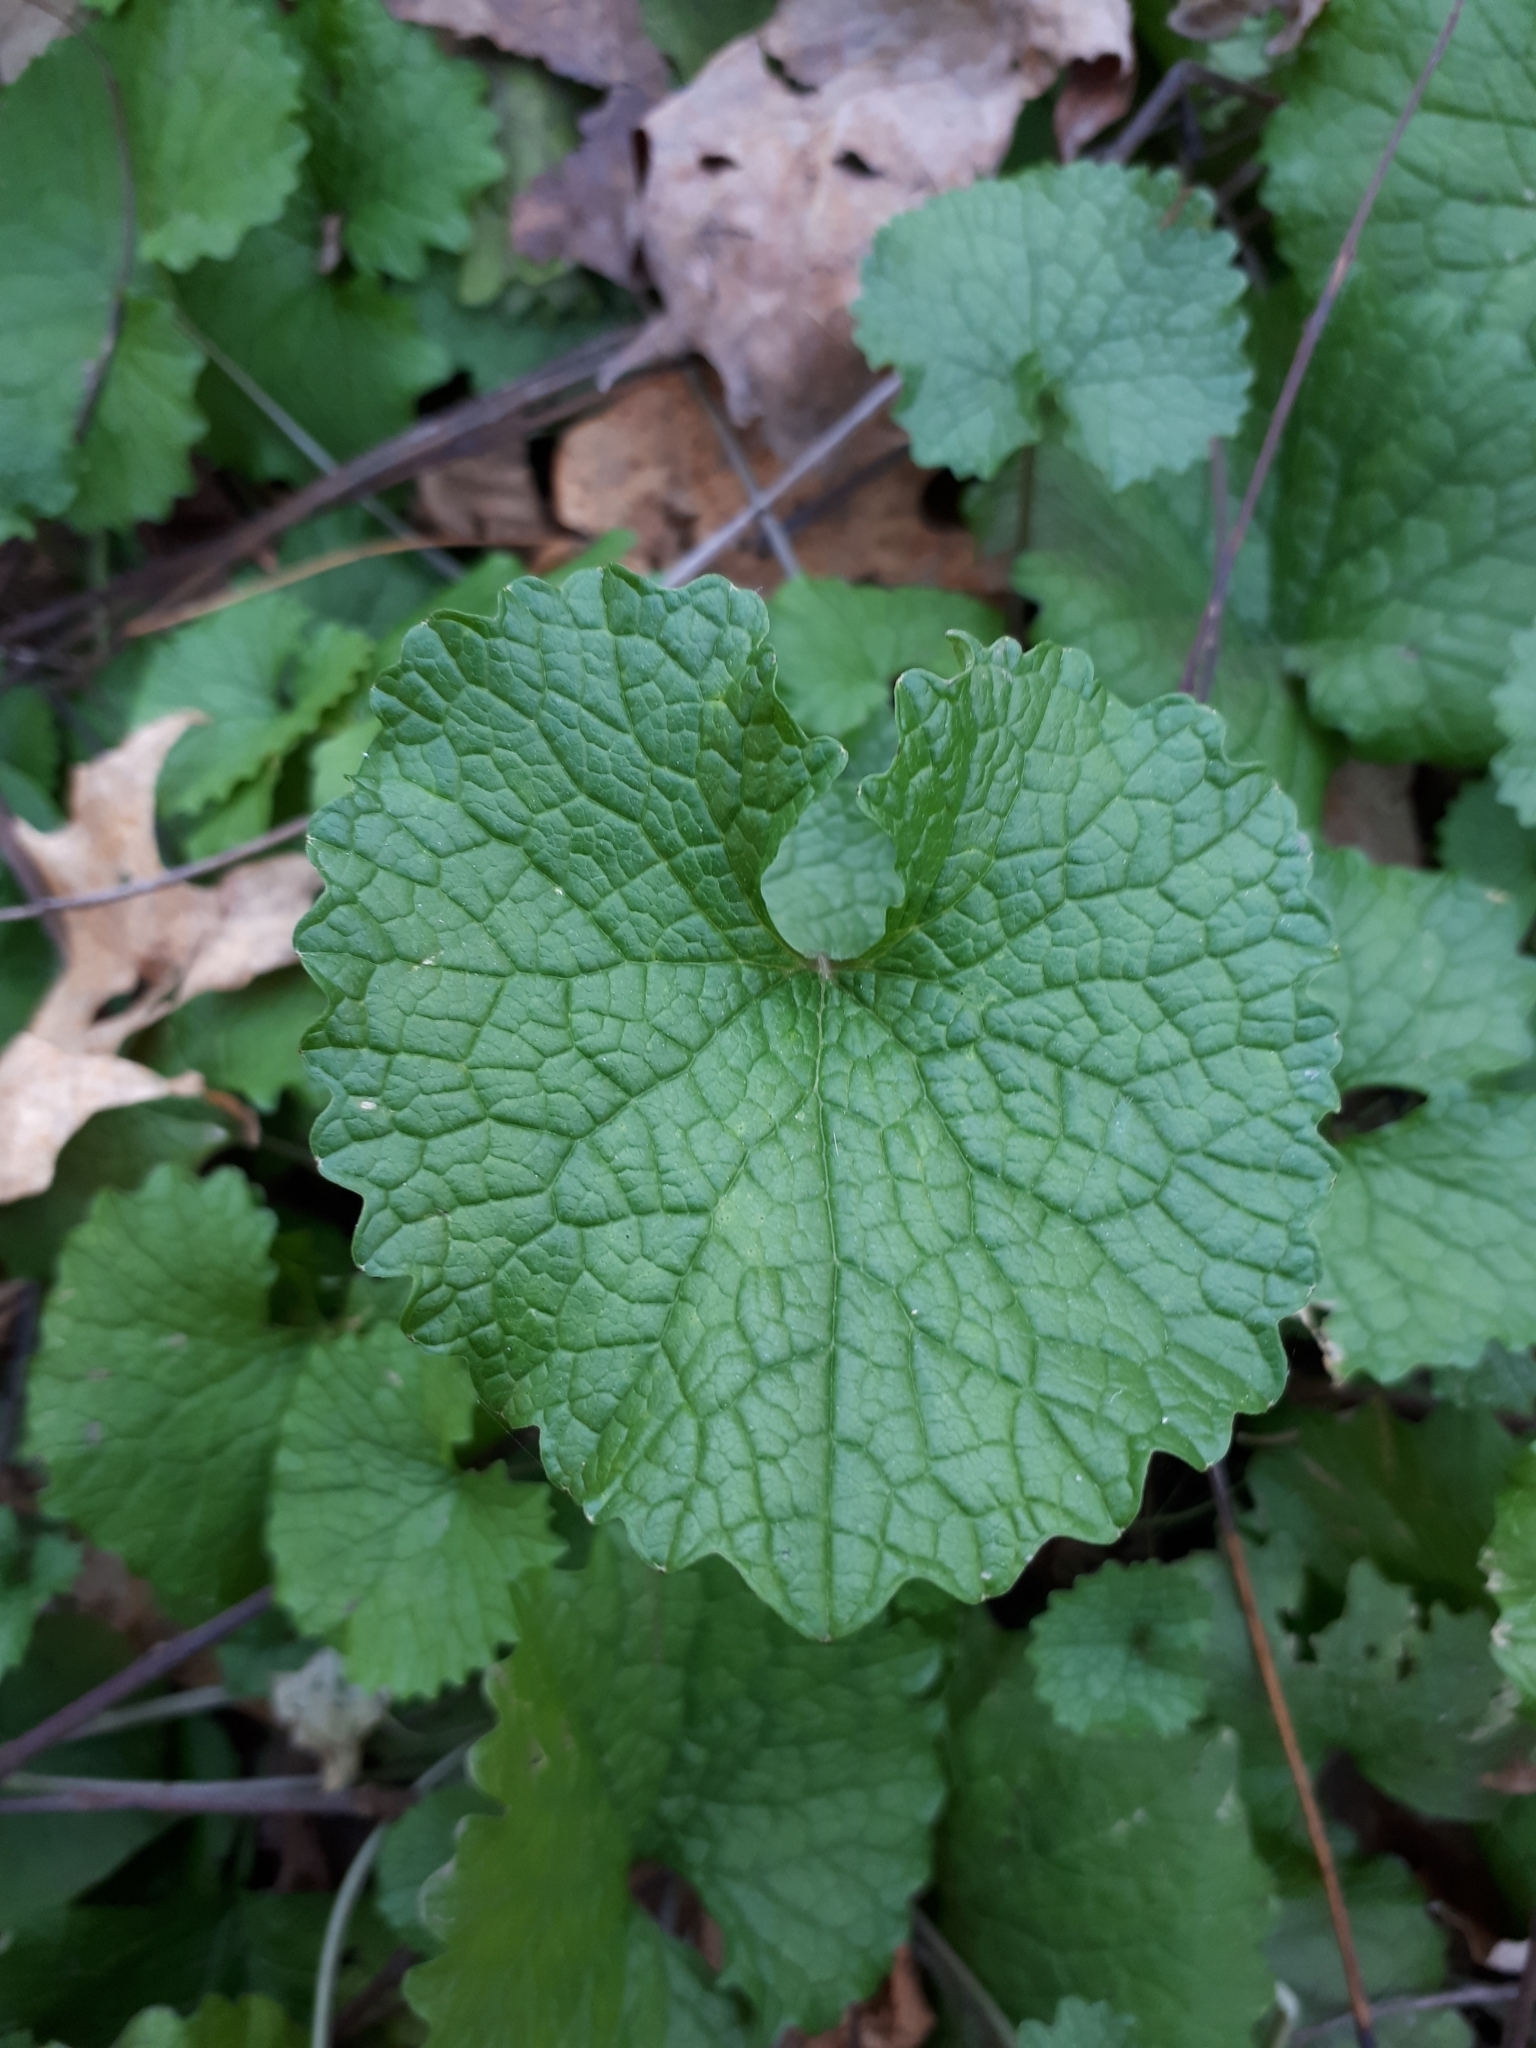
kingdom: Plantae
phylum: Tracheophyta
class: Magnoliopsida
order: Brassicales
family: Brassicaceae
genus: Alliaria
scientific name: Alliaria petiolata
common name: Garlic mustard
